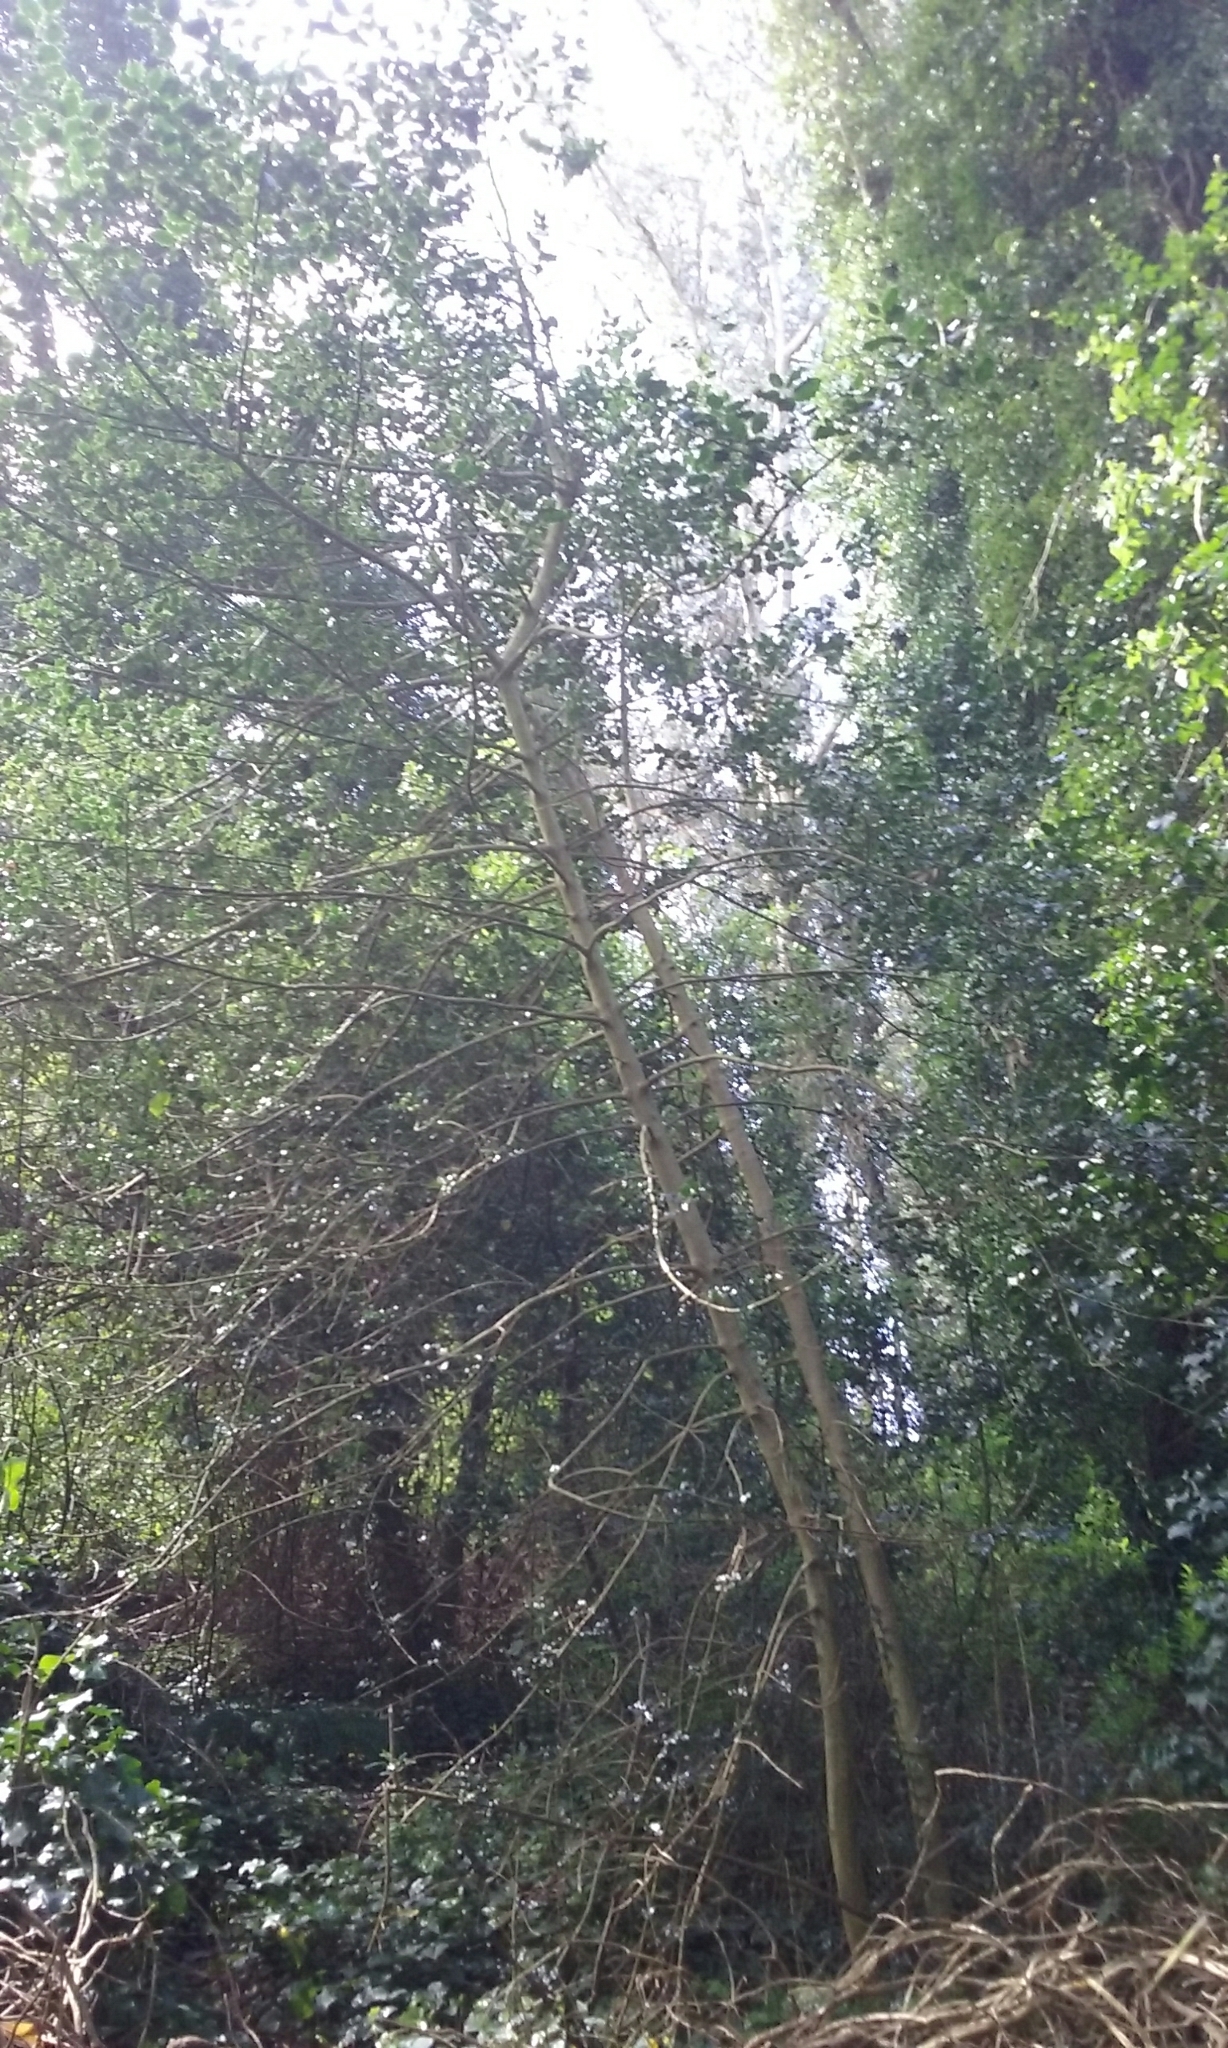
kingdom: Plantae
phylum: Tracheophyta
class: Magnoliopsida
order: Aquifoliales
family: Aquifoliaceae
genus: Ilex
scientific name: Ilex aquifolium
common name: English holly
